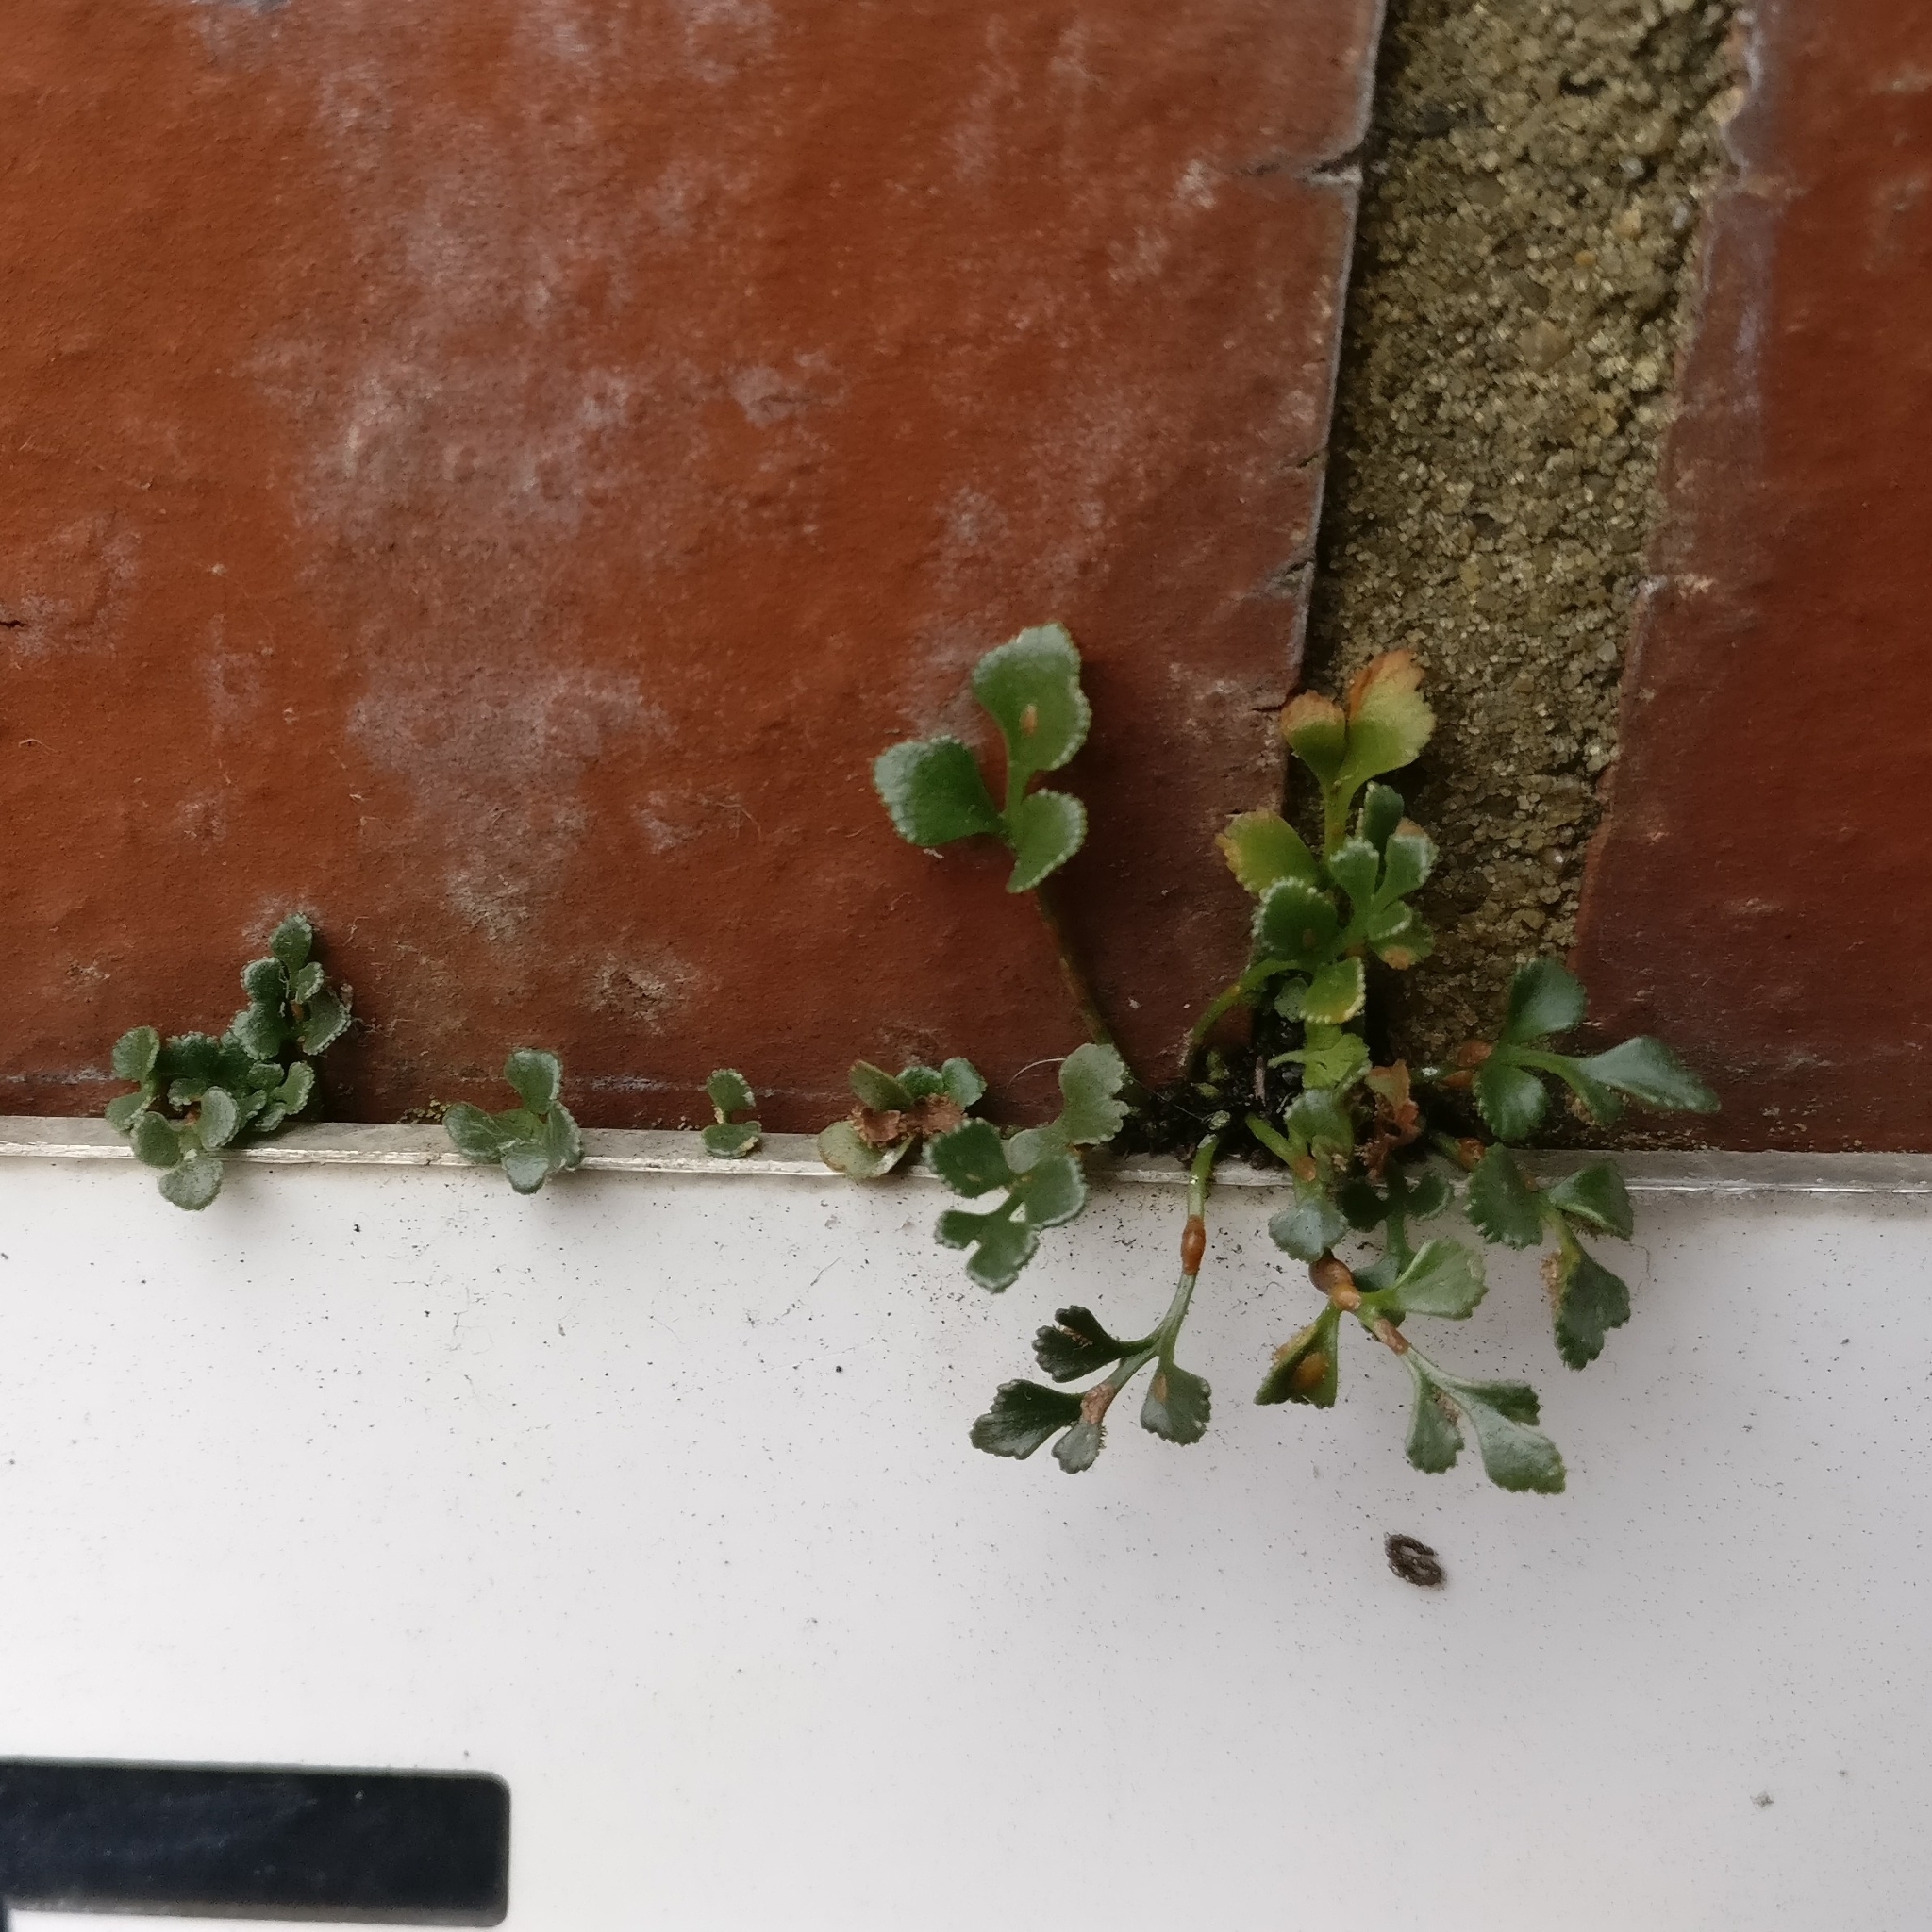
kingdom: Plantae
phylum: Tracheophyta
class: Polypodiopsida
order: Polypodiales
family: Aspleniaceae
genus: Asplenium
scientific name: Asplenium ruta-muraria
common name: Wall-rue
